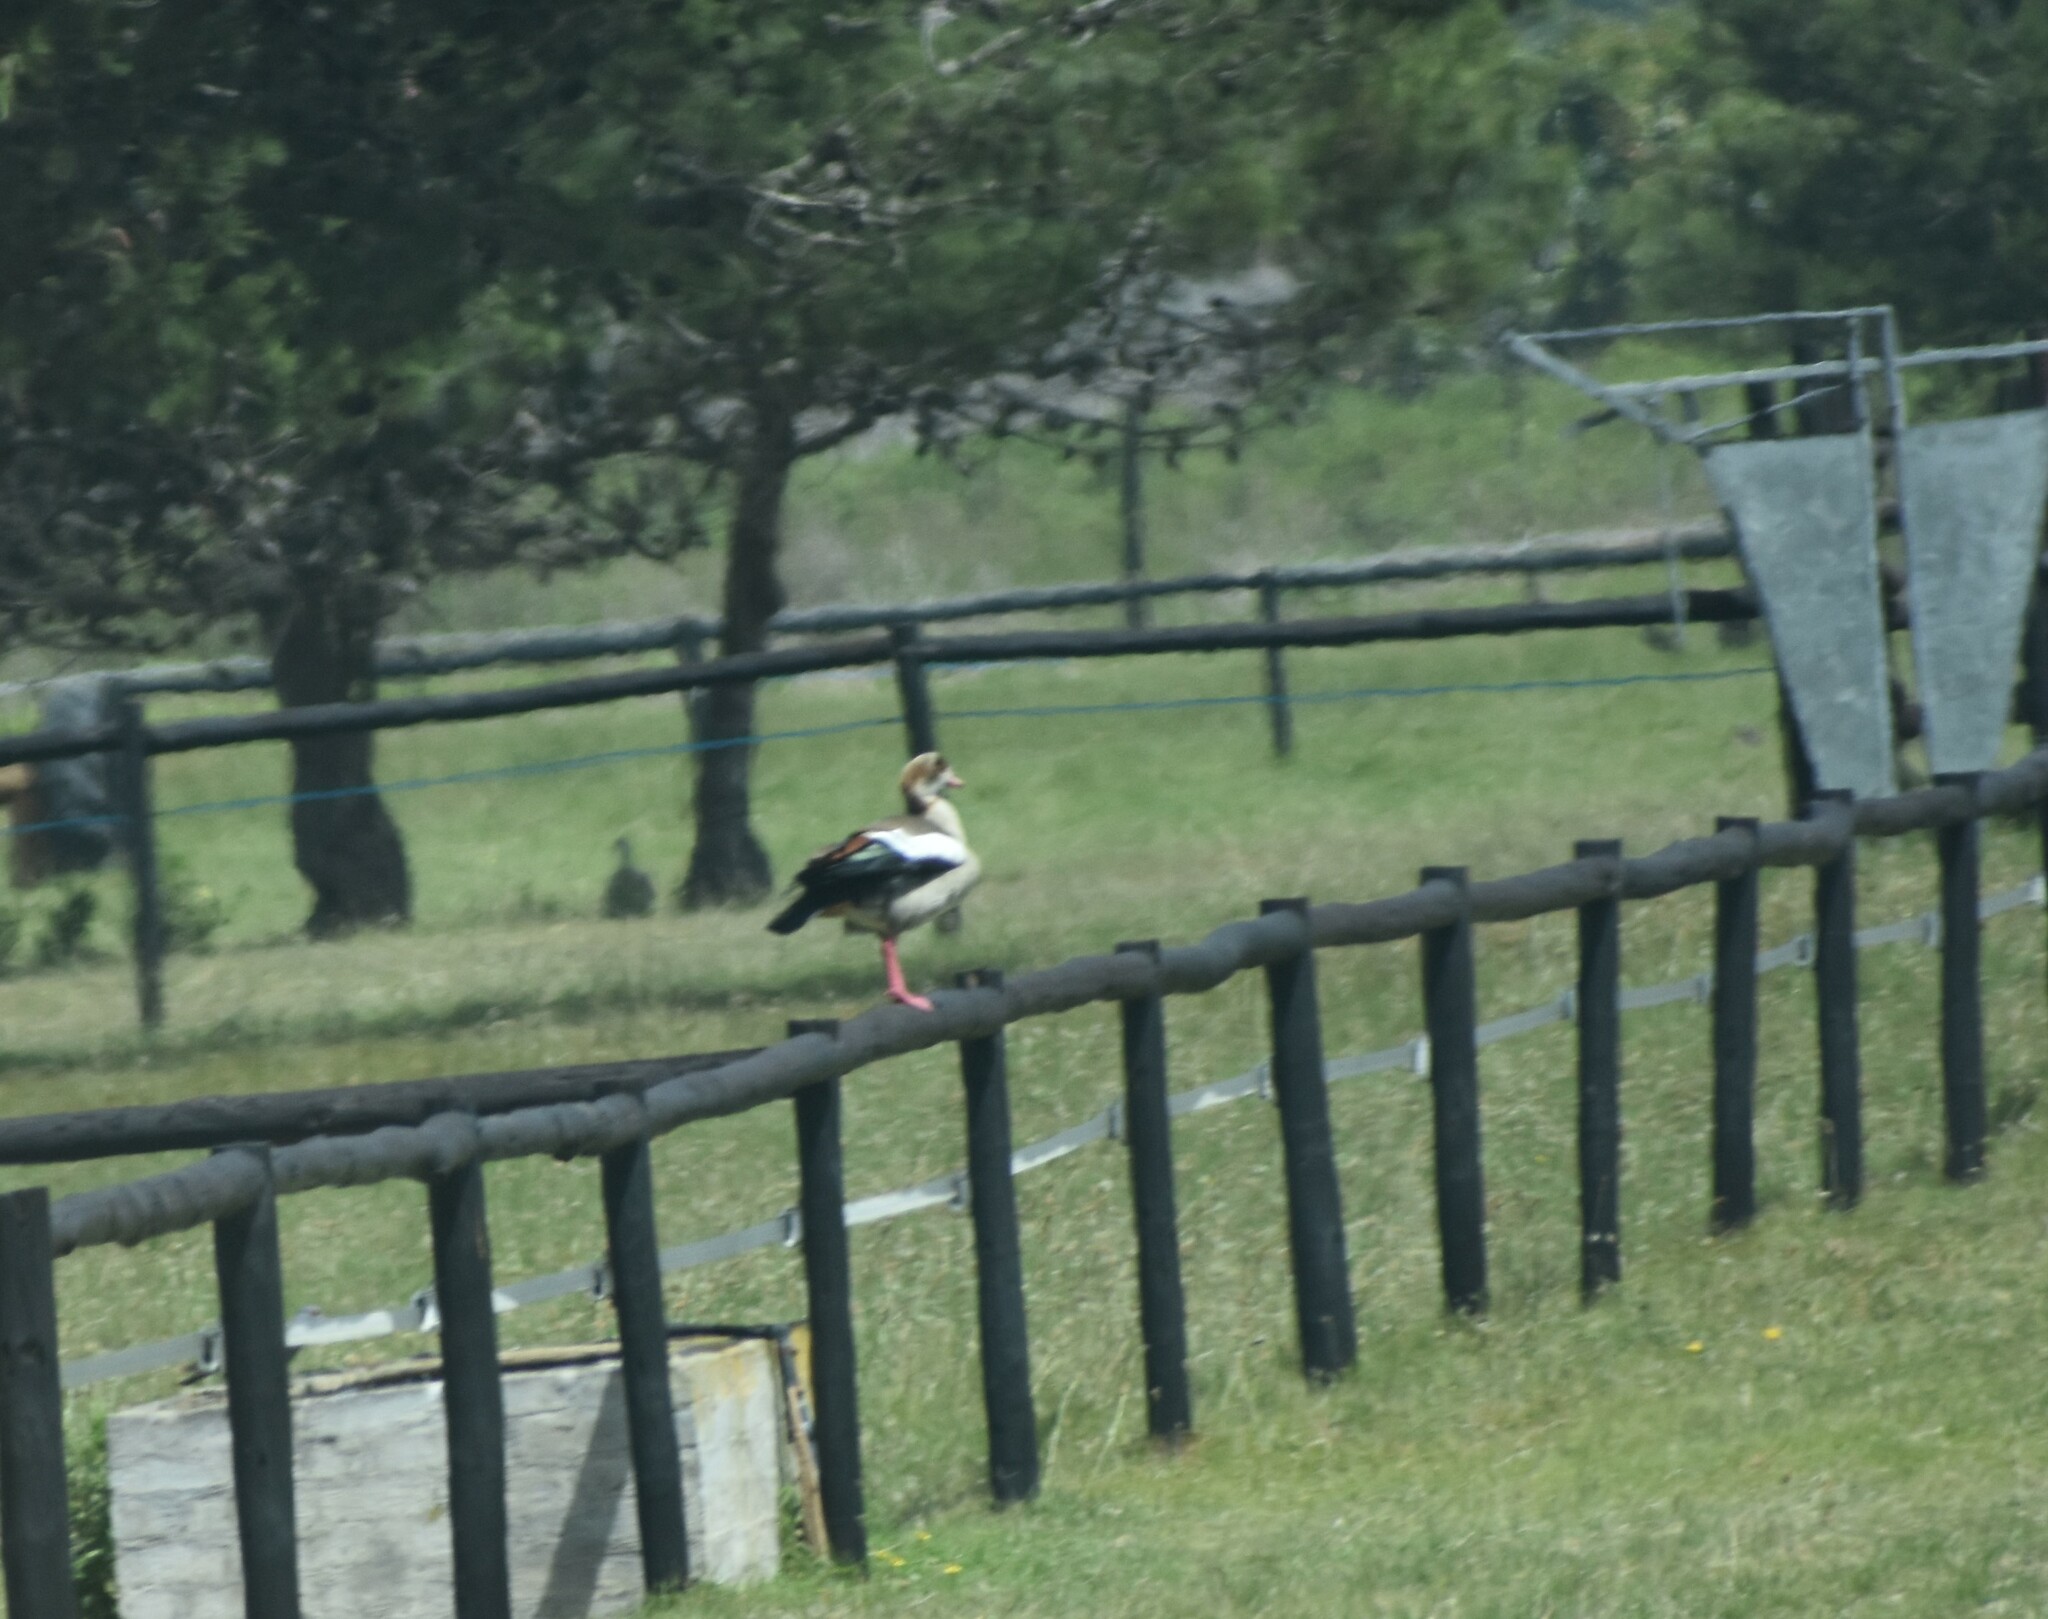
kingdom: Animalia
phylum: Chordata
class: Aves
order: Anseriformes
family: Anatidae
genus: Alopochen
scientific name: Alopochen aegyptiaca
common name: Egyptian goose
